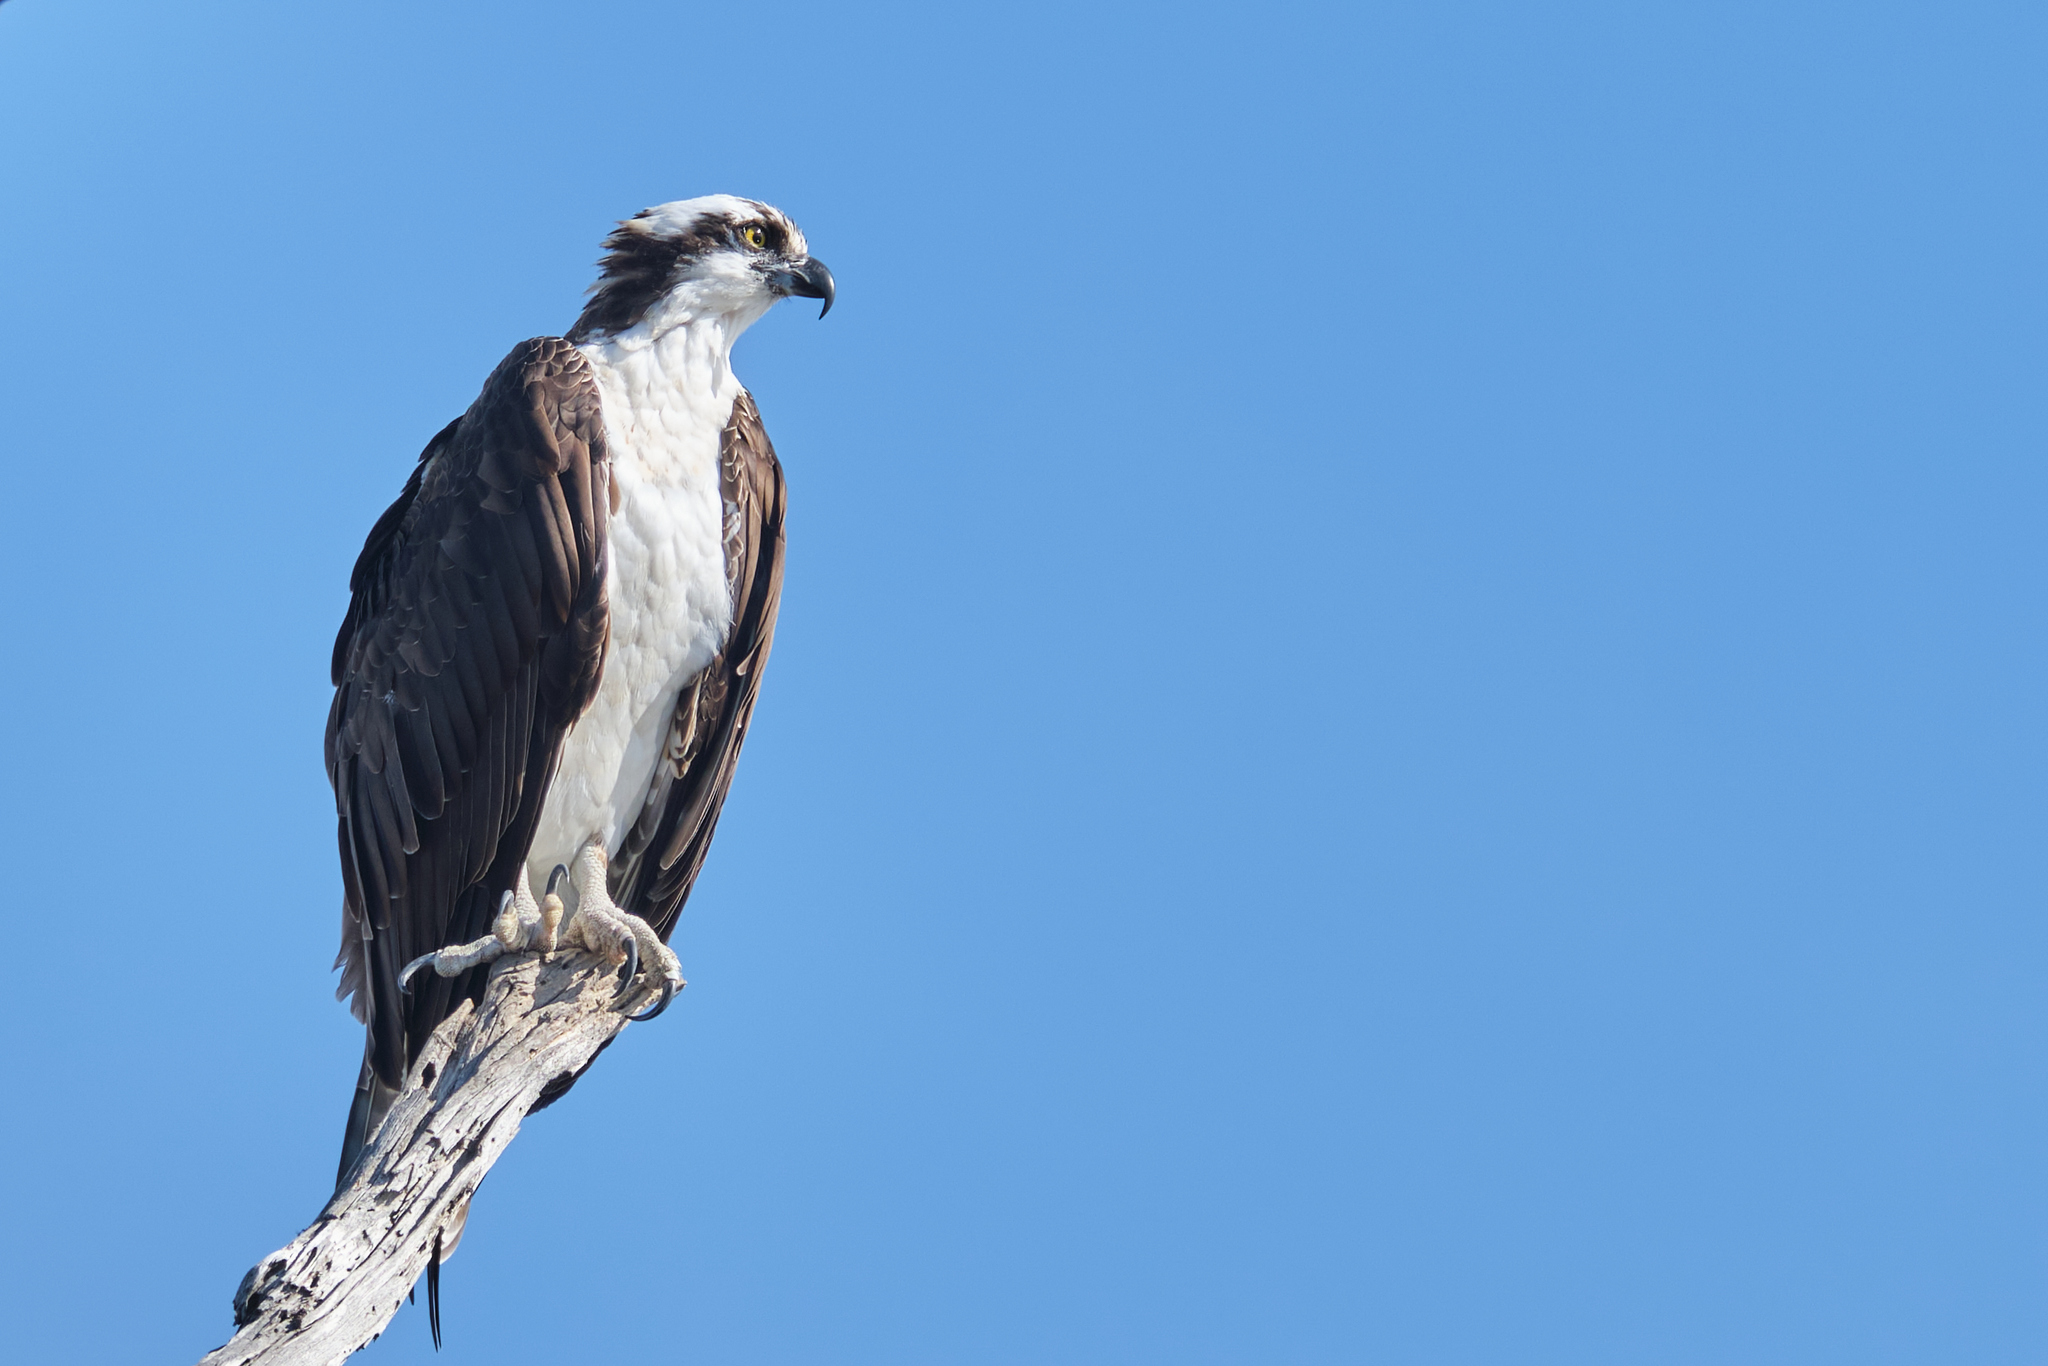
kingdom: Animalia
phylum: Chordata
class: Aves
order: Accipitriformes
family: Pandionidae
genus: Pandion
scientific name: Pandion haliaetus
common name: Osprey
